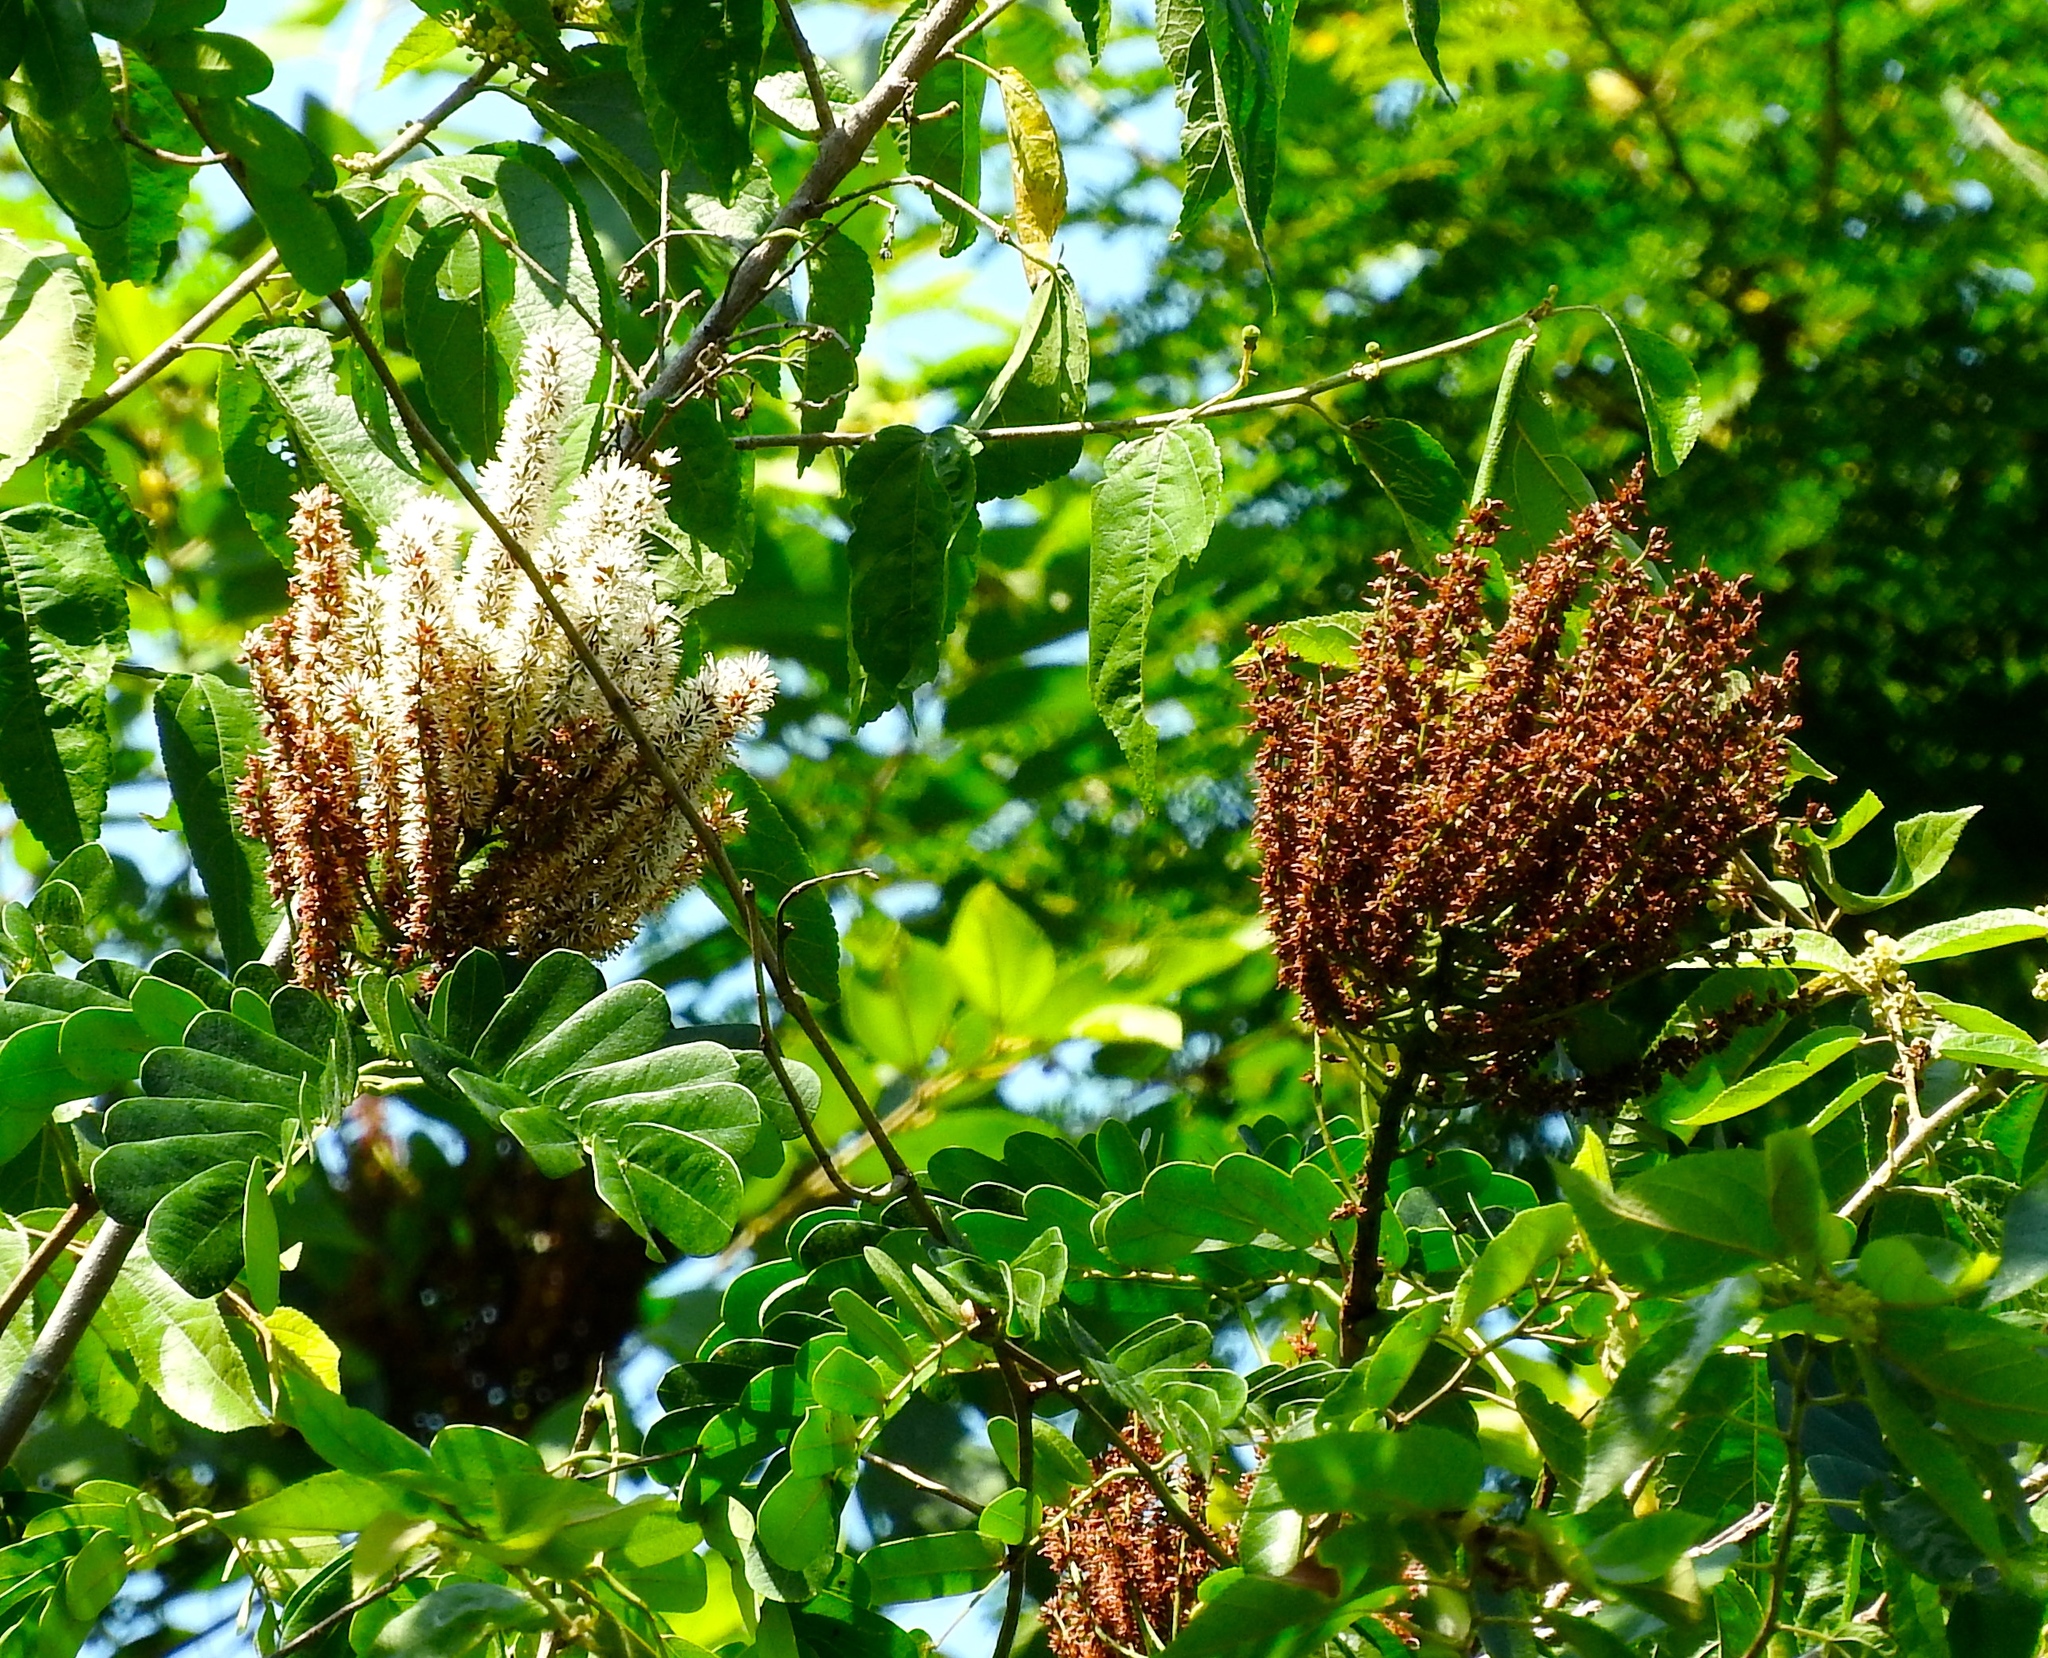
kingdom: Plantae
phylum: Tracheophyta
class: Magnoliopsida
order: Fabales
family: Fabaceae
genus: Entada
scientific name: Entada polystachya
